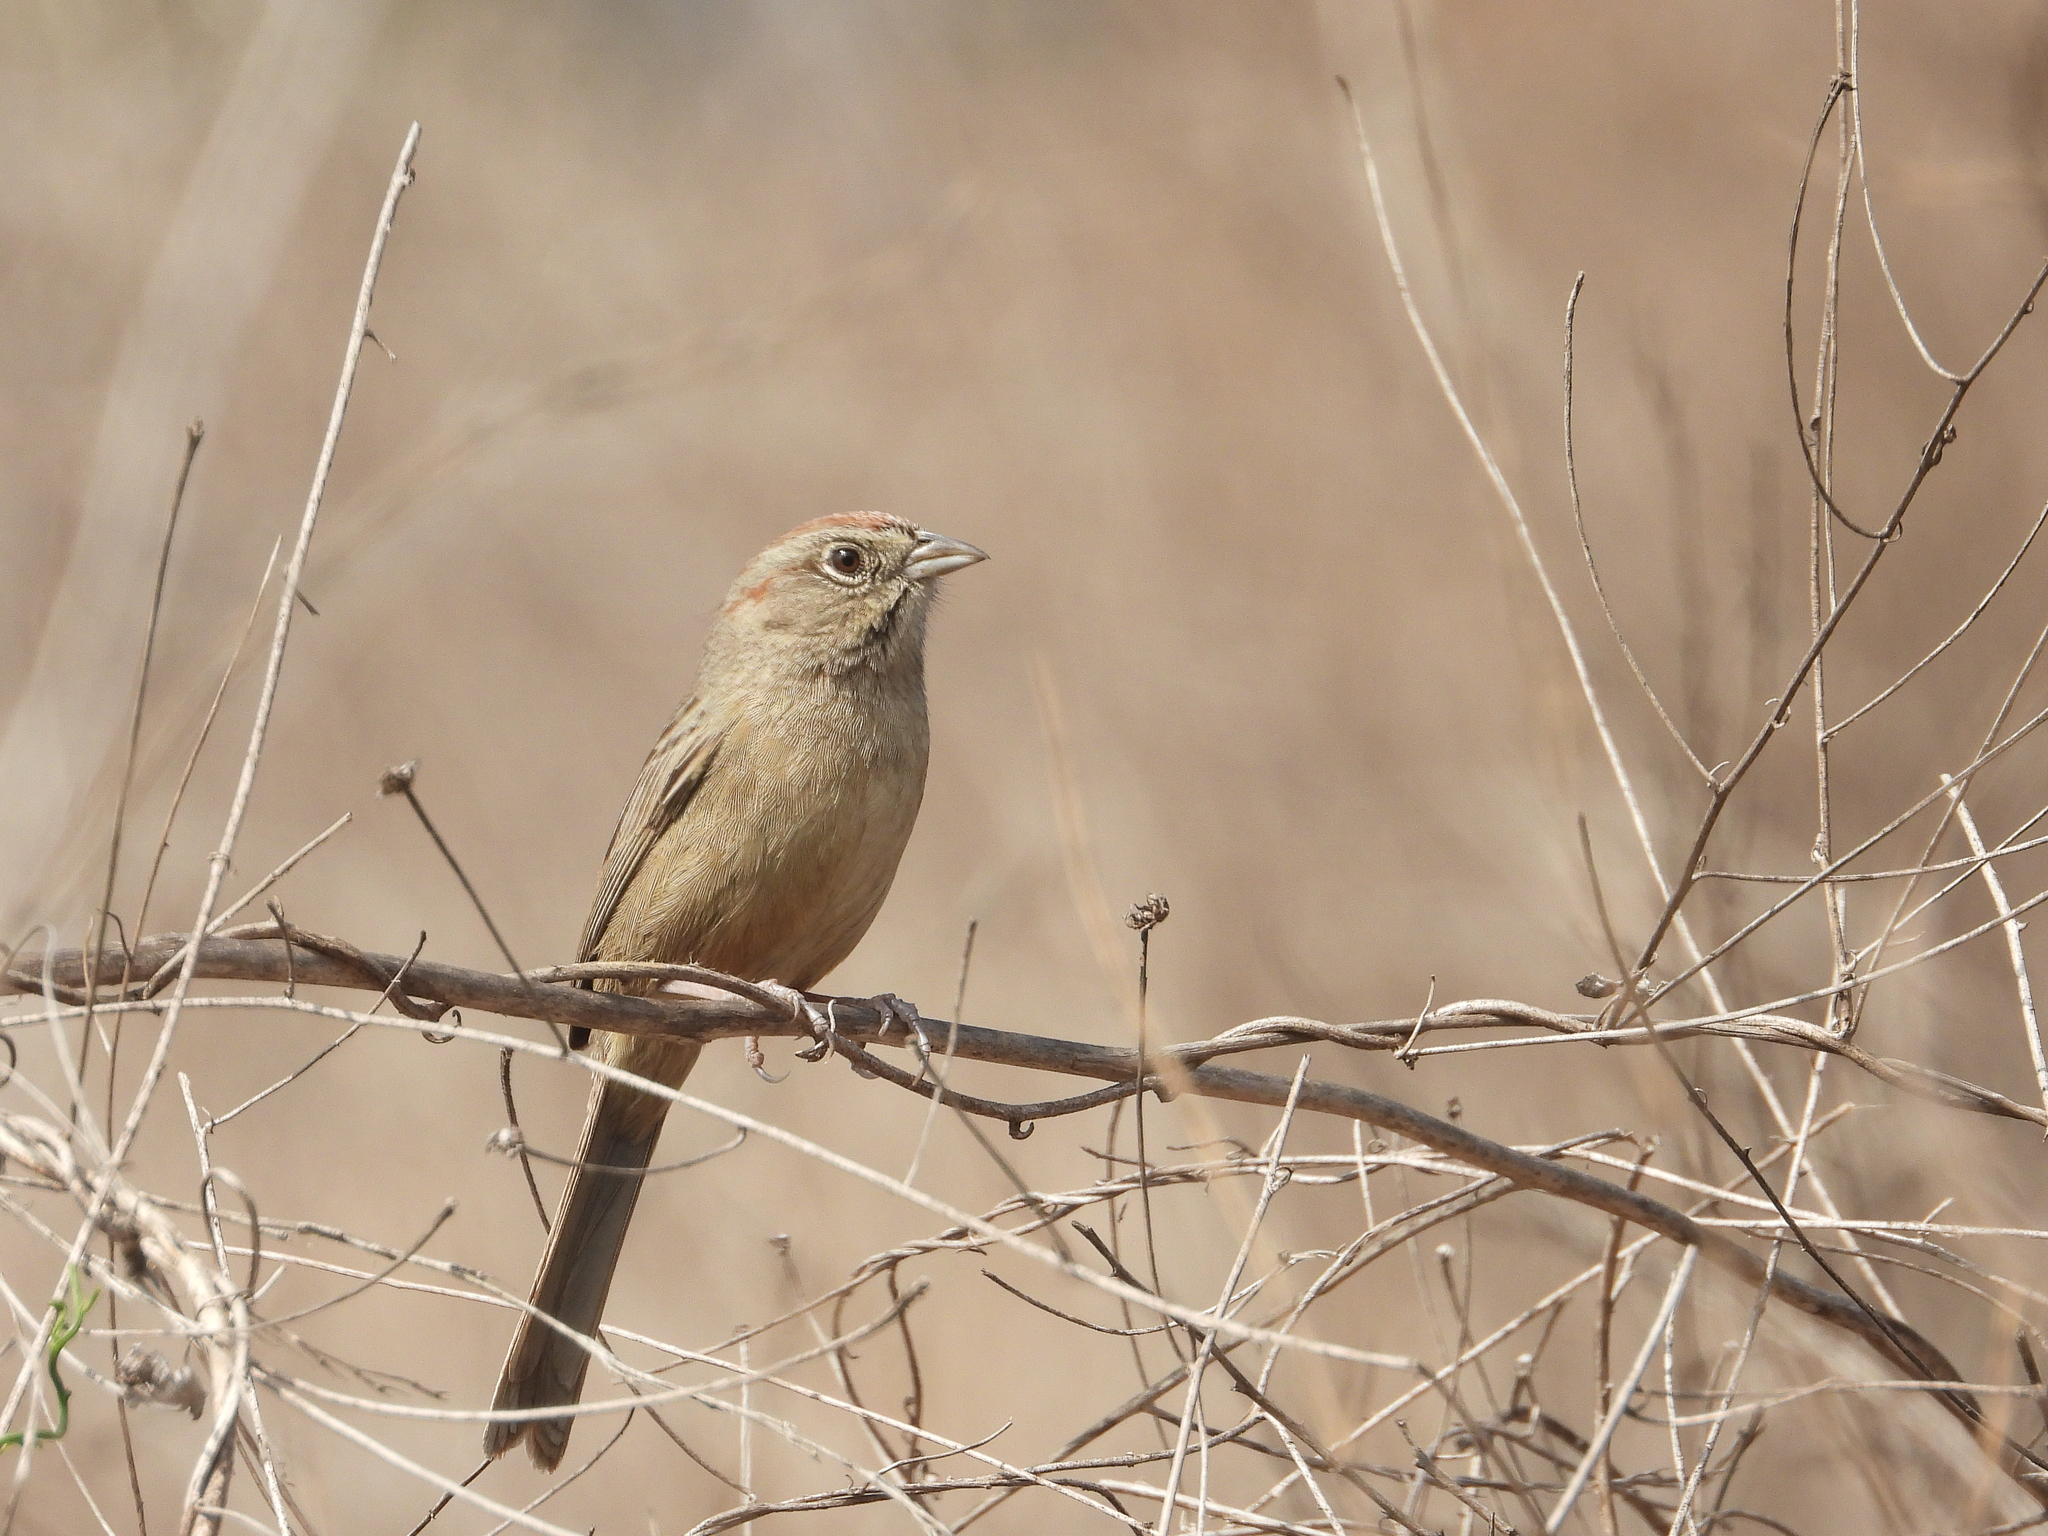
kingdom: Animalia
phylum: Chordata
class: Aves
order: Passeriformes
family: Passerellidae
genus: Aimophila
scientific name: Aimophila ruficeps
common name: Rufous-crowned sparrow
